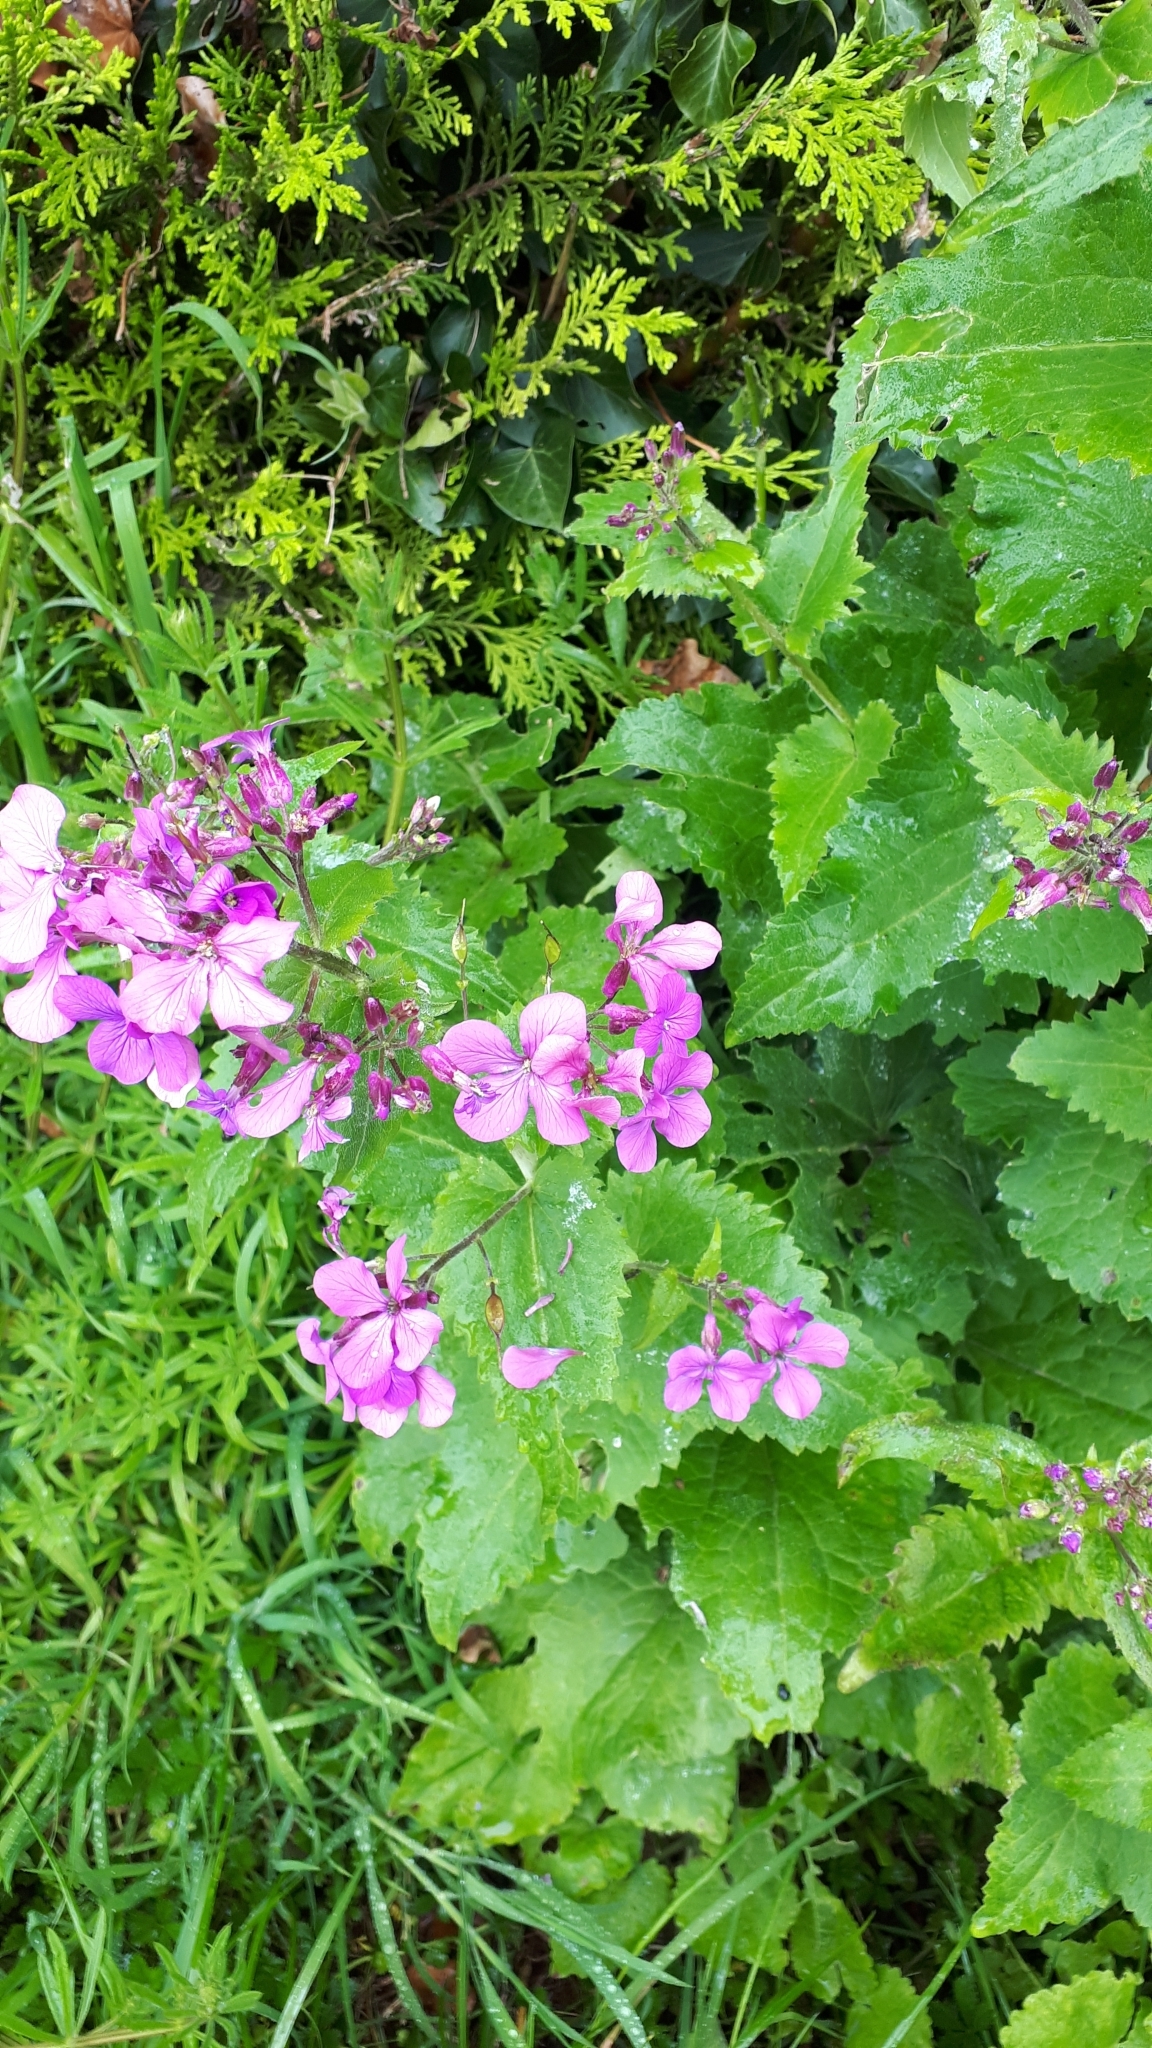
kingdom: Plantae
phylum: Tracheophyta
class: Magnoliopsida
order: Brassicales
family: Brassicaceae
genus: Lunaria
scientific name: Lunaria annua
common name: Honesty
